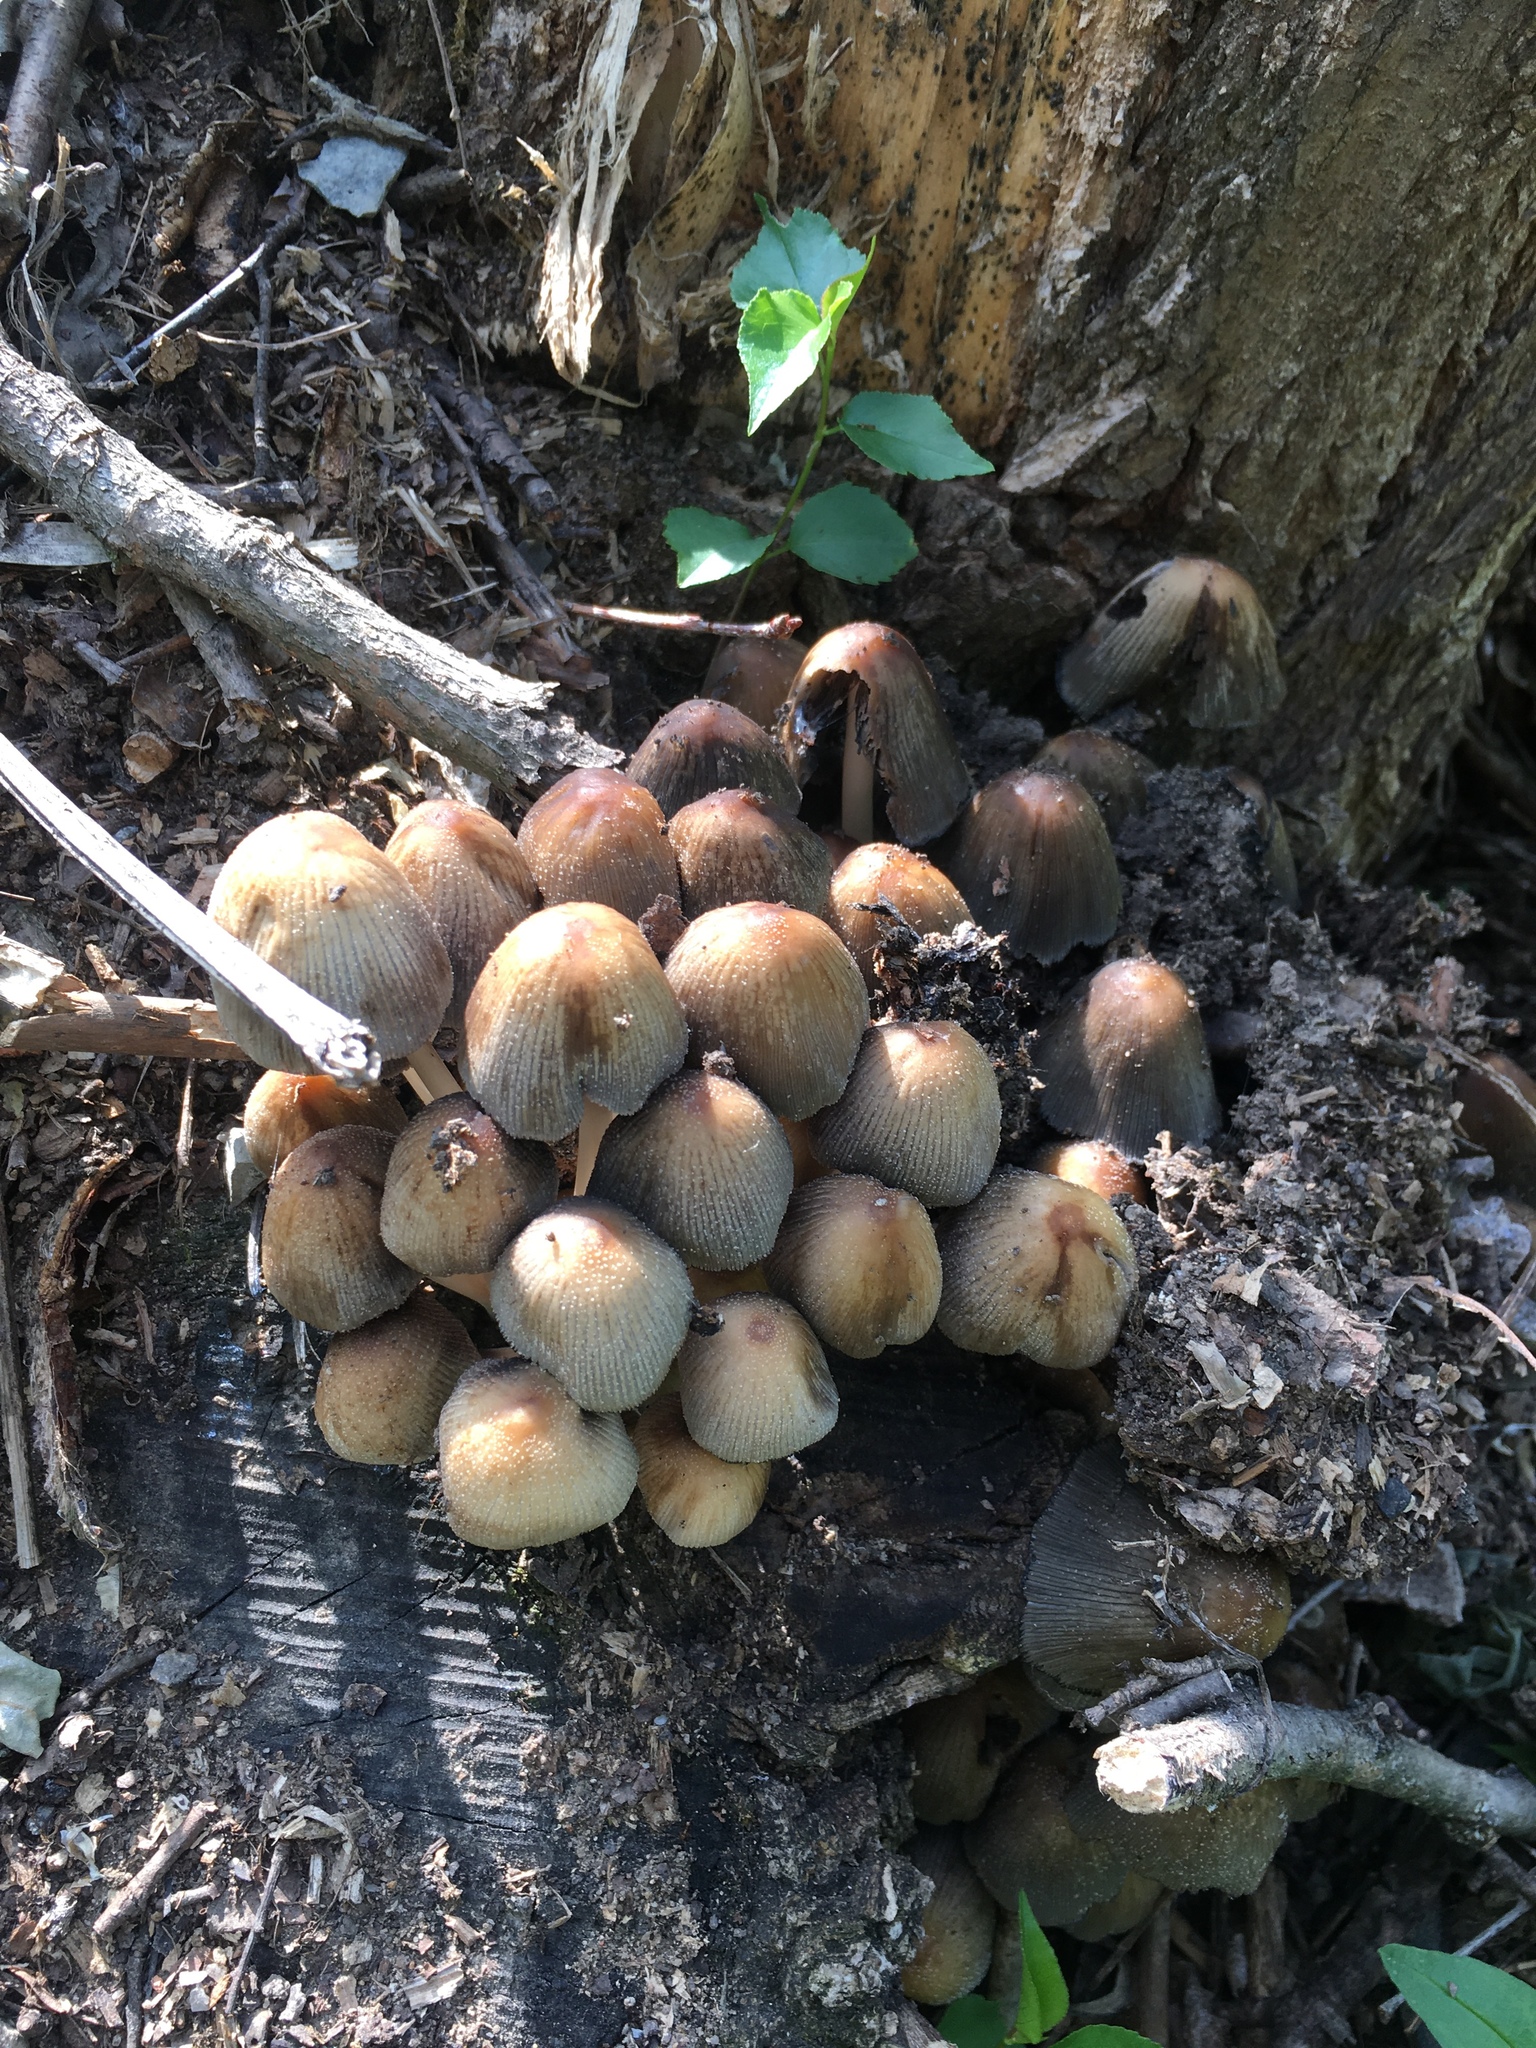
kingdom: Fungi
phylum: Basidiomycota
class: Agaricomycetes
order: Agaricales
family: Psathyrellaceae
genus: Coprinellus
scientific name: Coprinellus micaceus
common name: Glistening ink-cap
